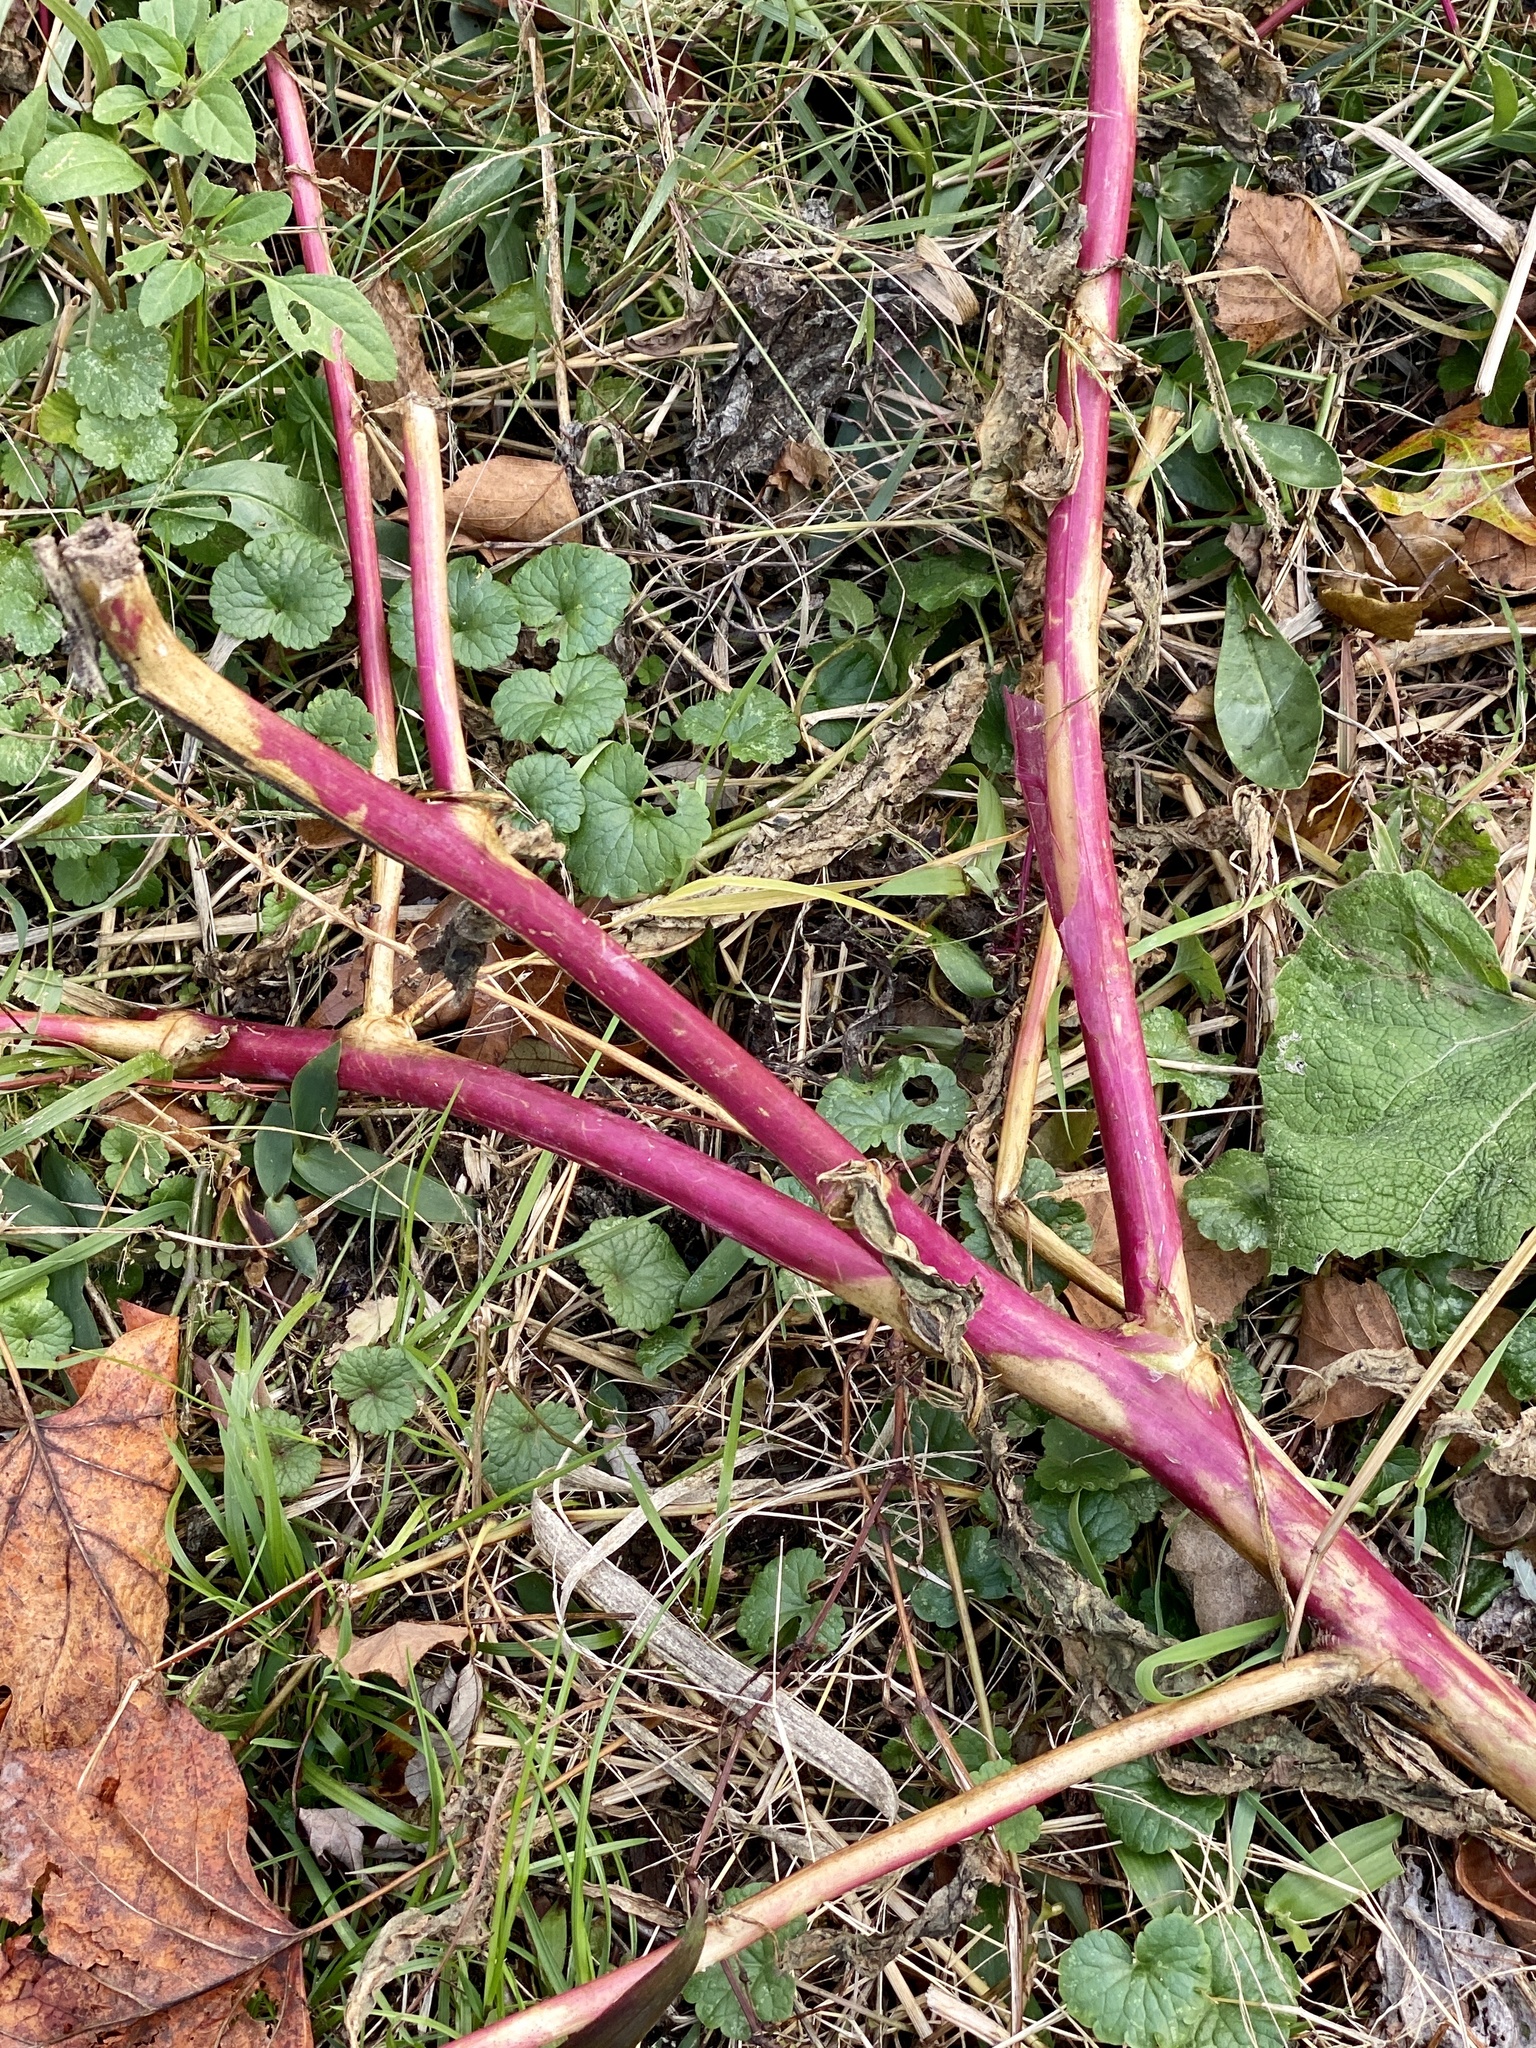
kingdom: Plantae
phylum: Tracheophyta
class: Magnoliopsida
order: Caryophyllales
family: Phytolaccaceae
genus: Phytolacca
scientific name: Phytolacca americana
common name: American pokeweed
